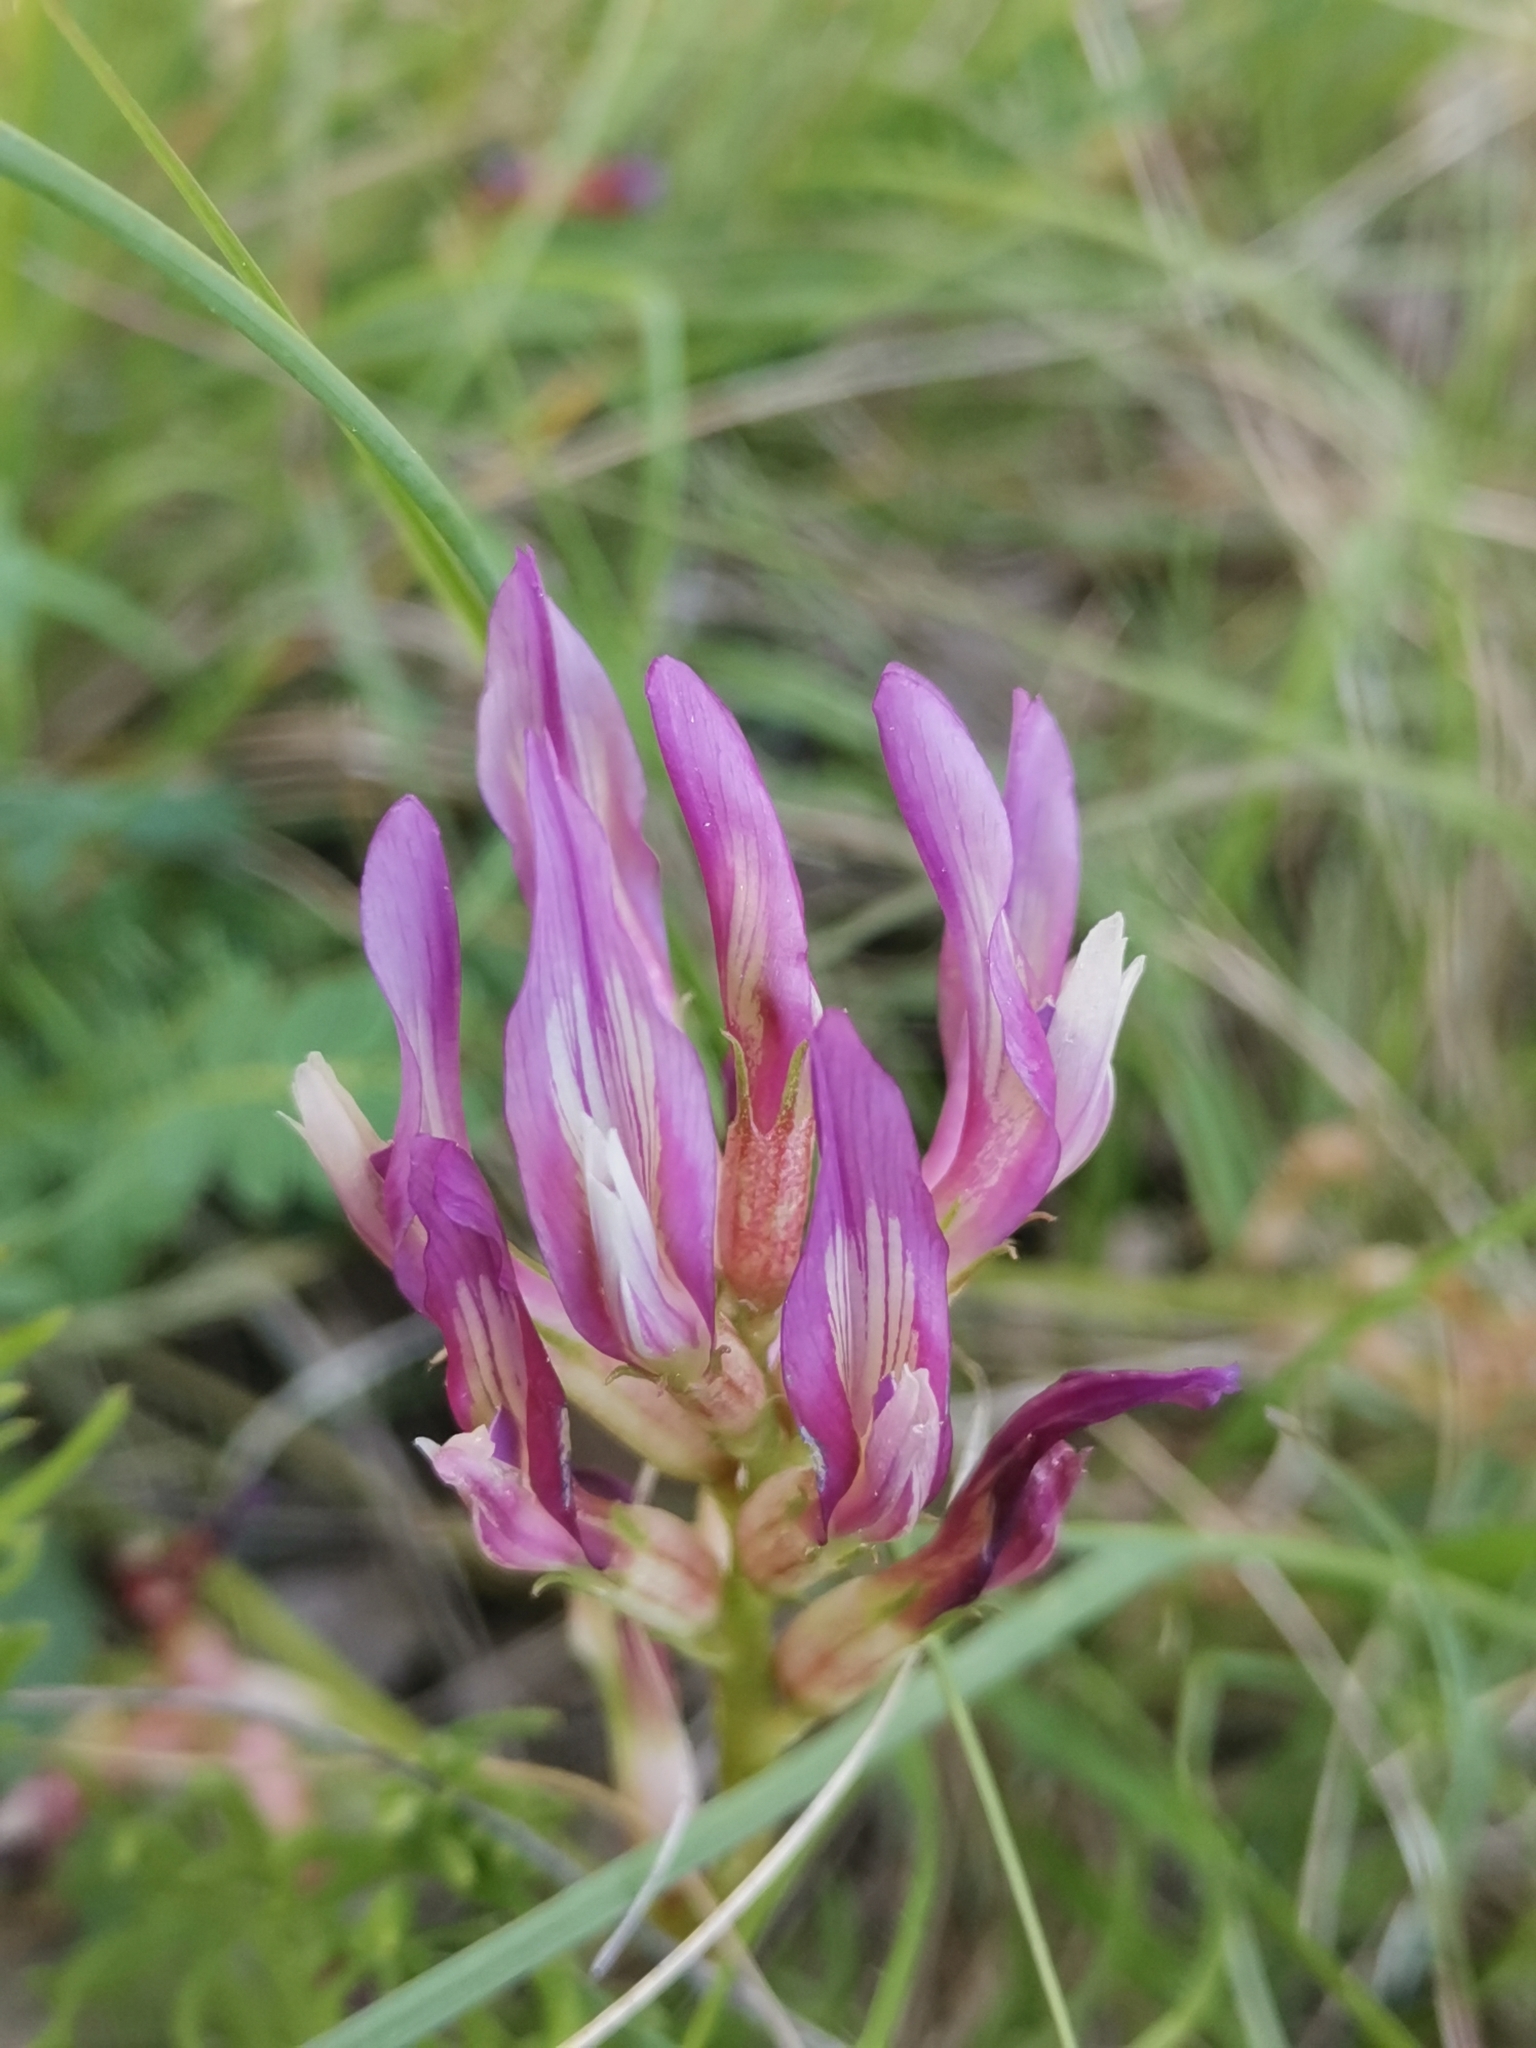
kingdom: Plantae
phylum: Tracheophyta
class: Magnoliopsida
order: Fabales
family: Fabaceae
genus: Astragalus
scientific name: Astragalus monspessulanus
